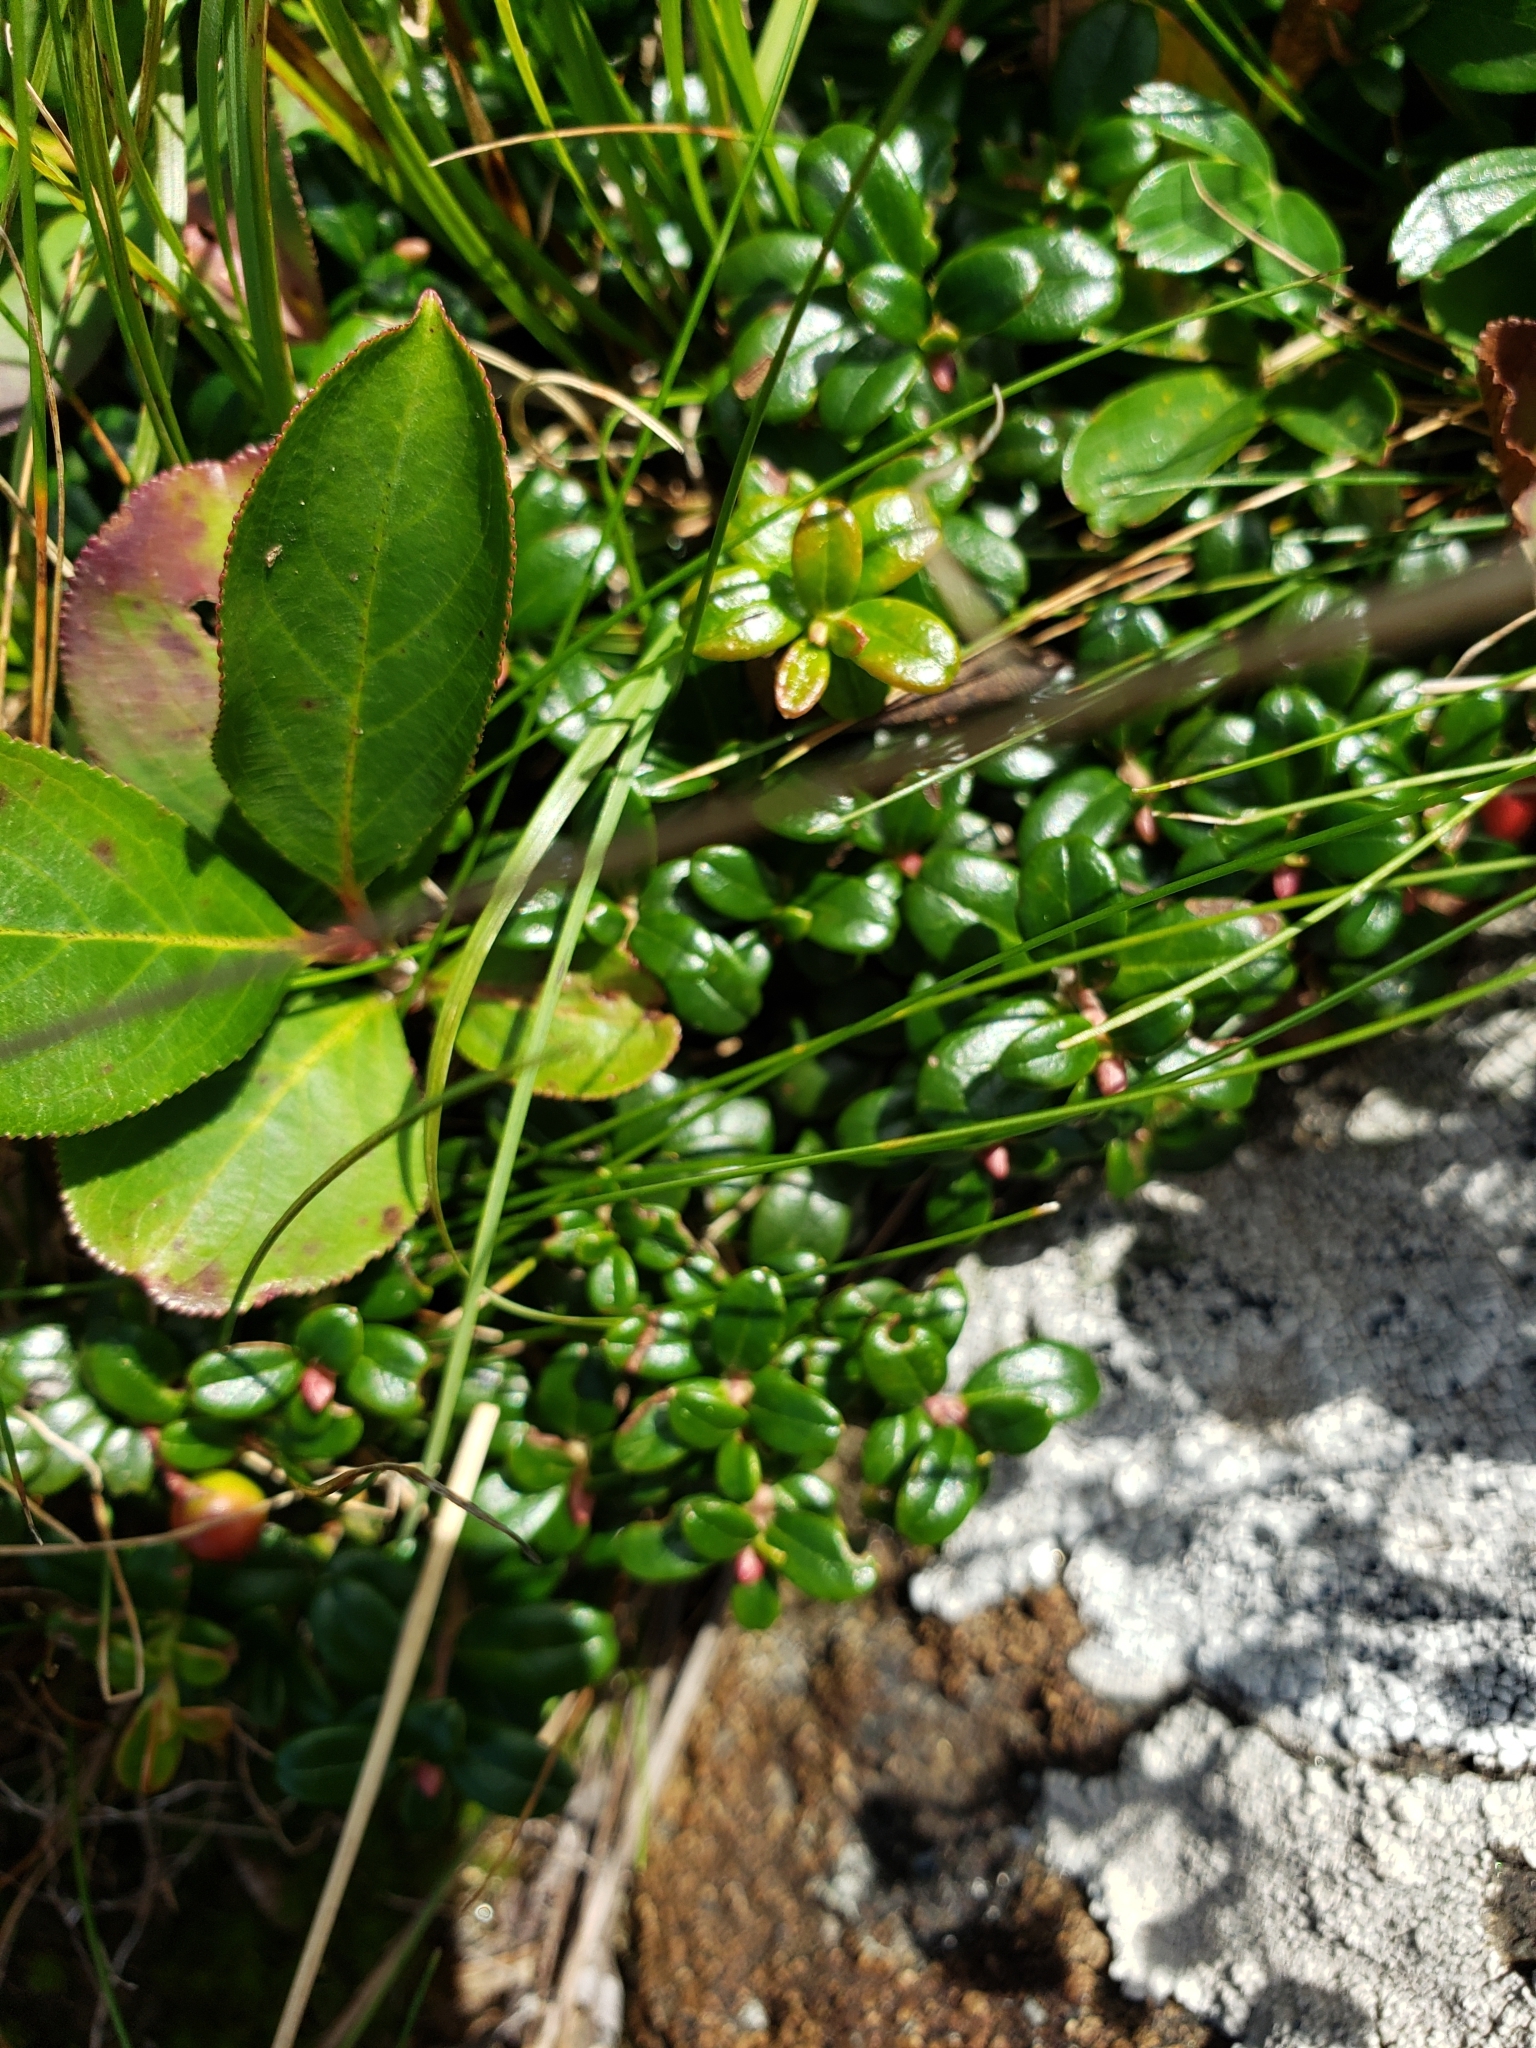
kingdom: Plantae
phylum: Tracheophyta
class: Magnoliopsida
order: Ericales
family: Ericaceae
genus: Vaccinium
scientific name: Vaccinium vitis-idaea
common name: Cowberry
